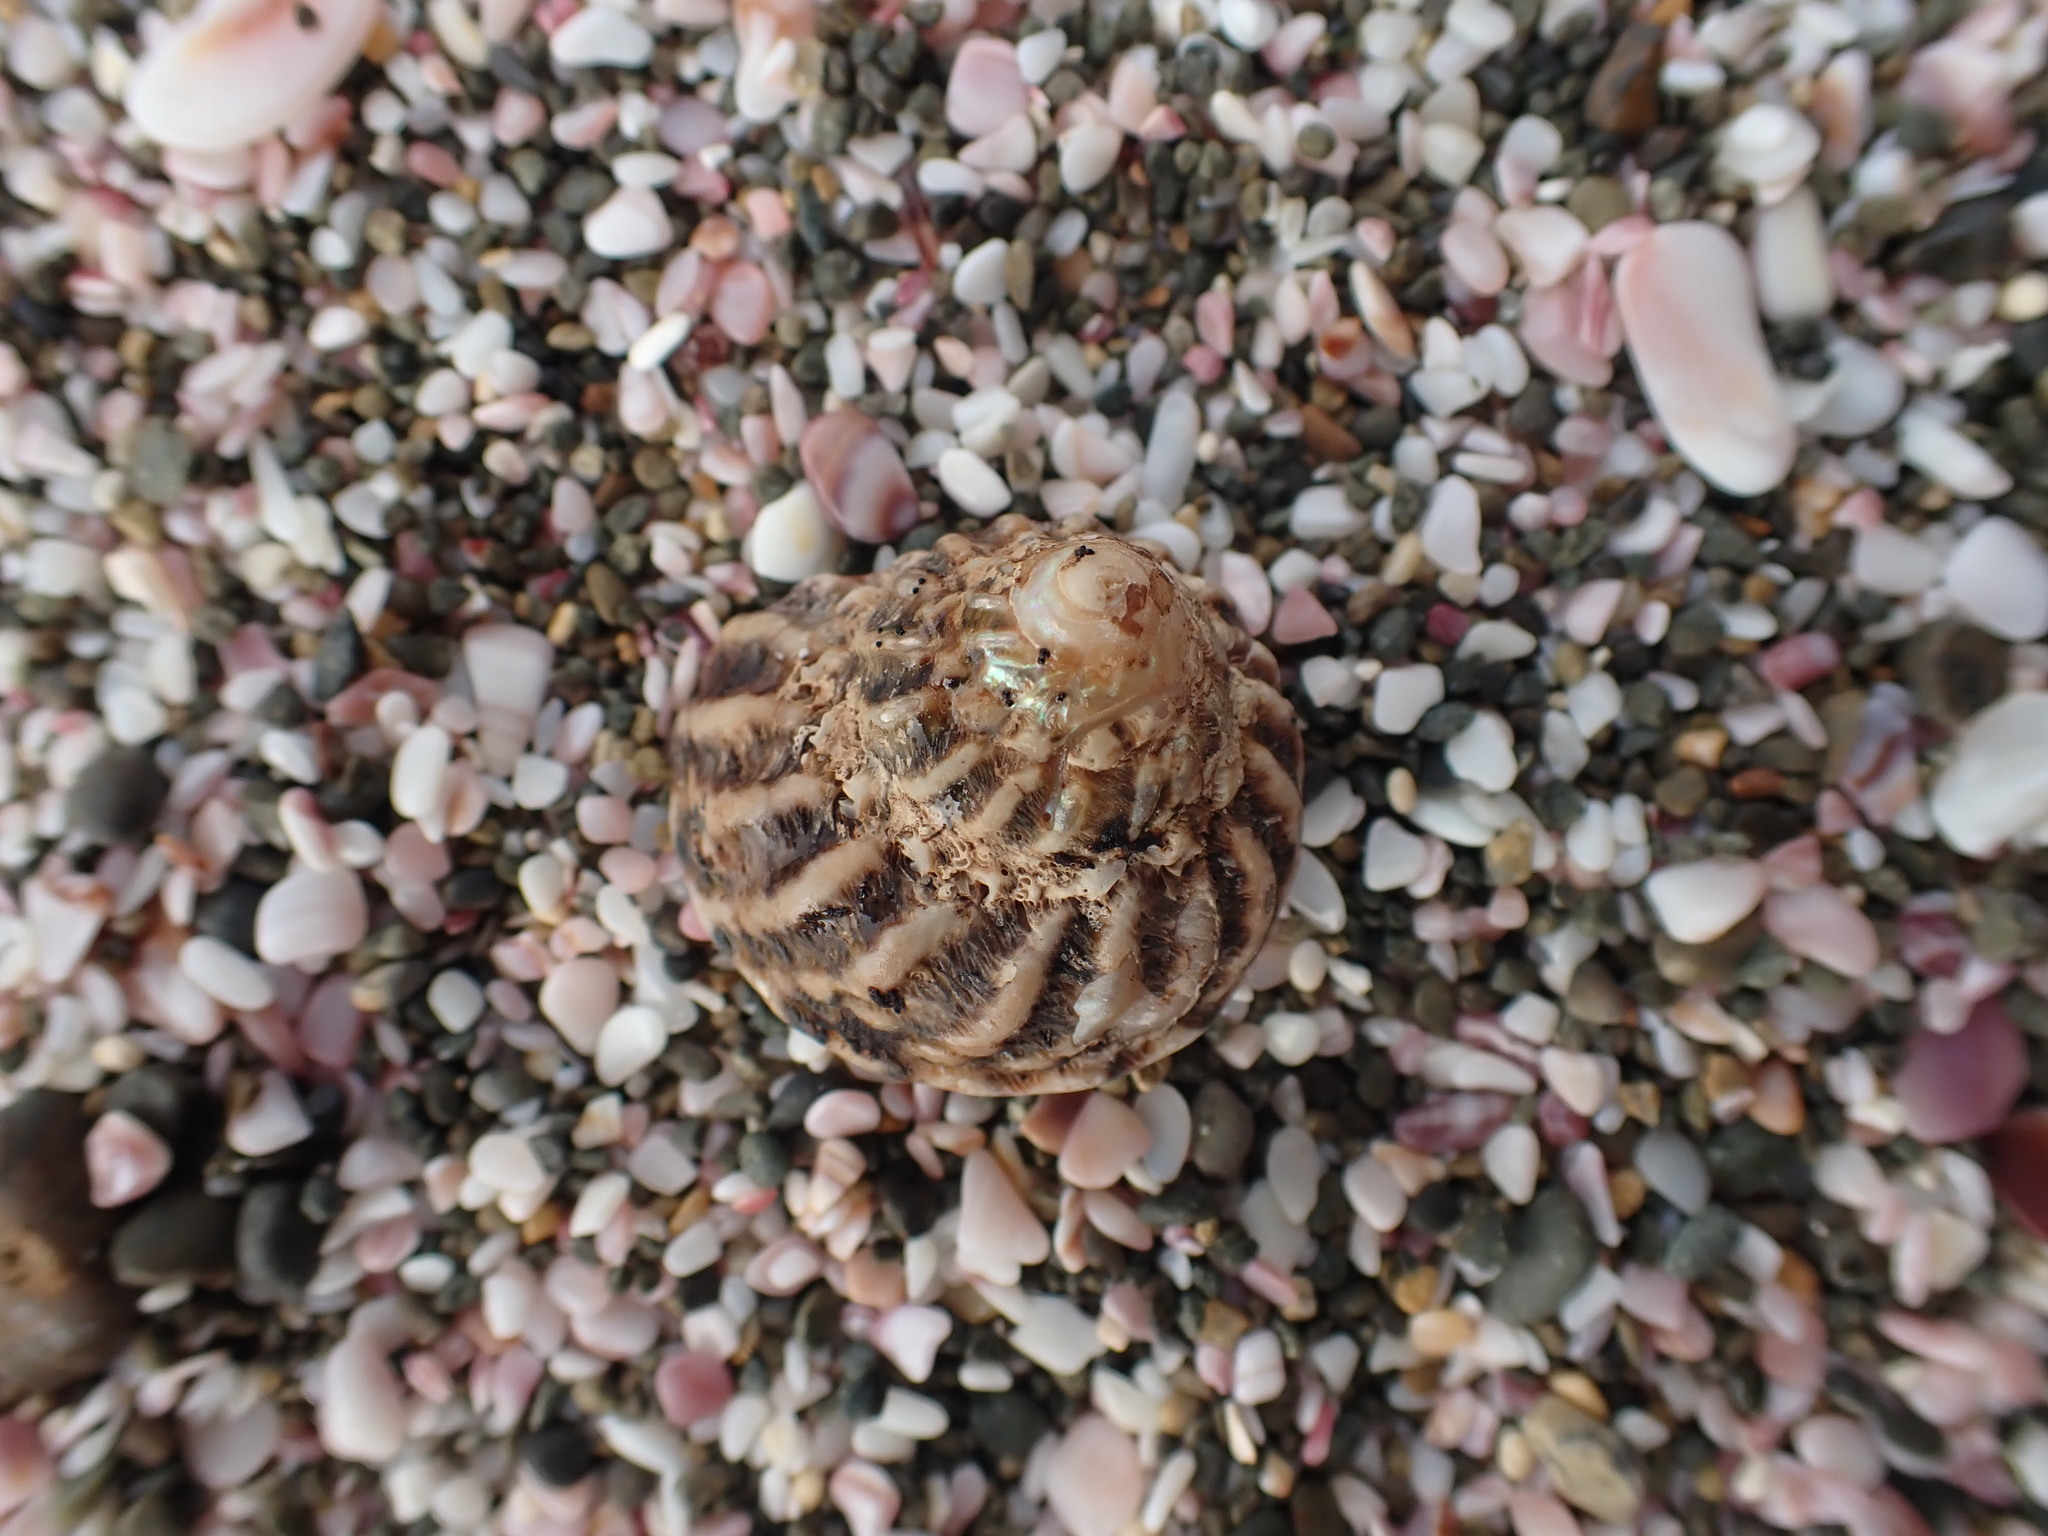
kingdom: Animalia
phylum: Mollusca
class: Gastropoda
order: Trochida
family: Turbinidae
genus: Cookia
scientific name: Cookia sulcata
